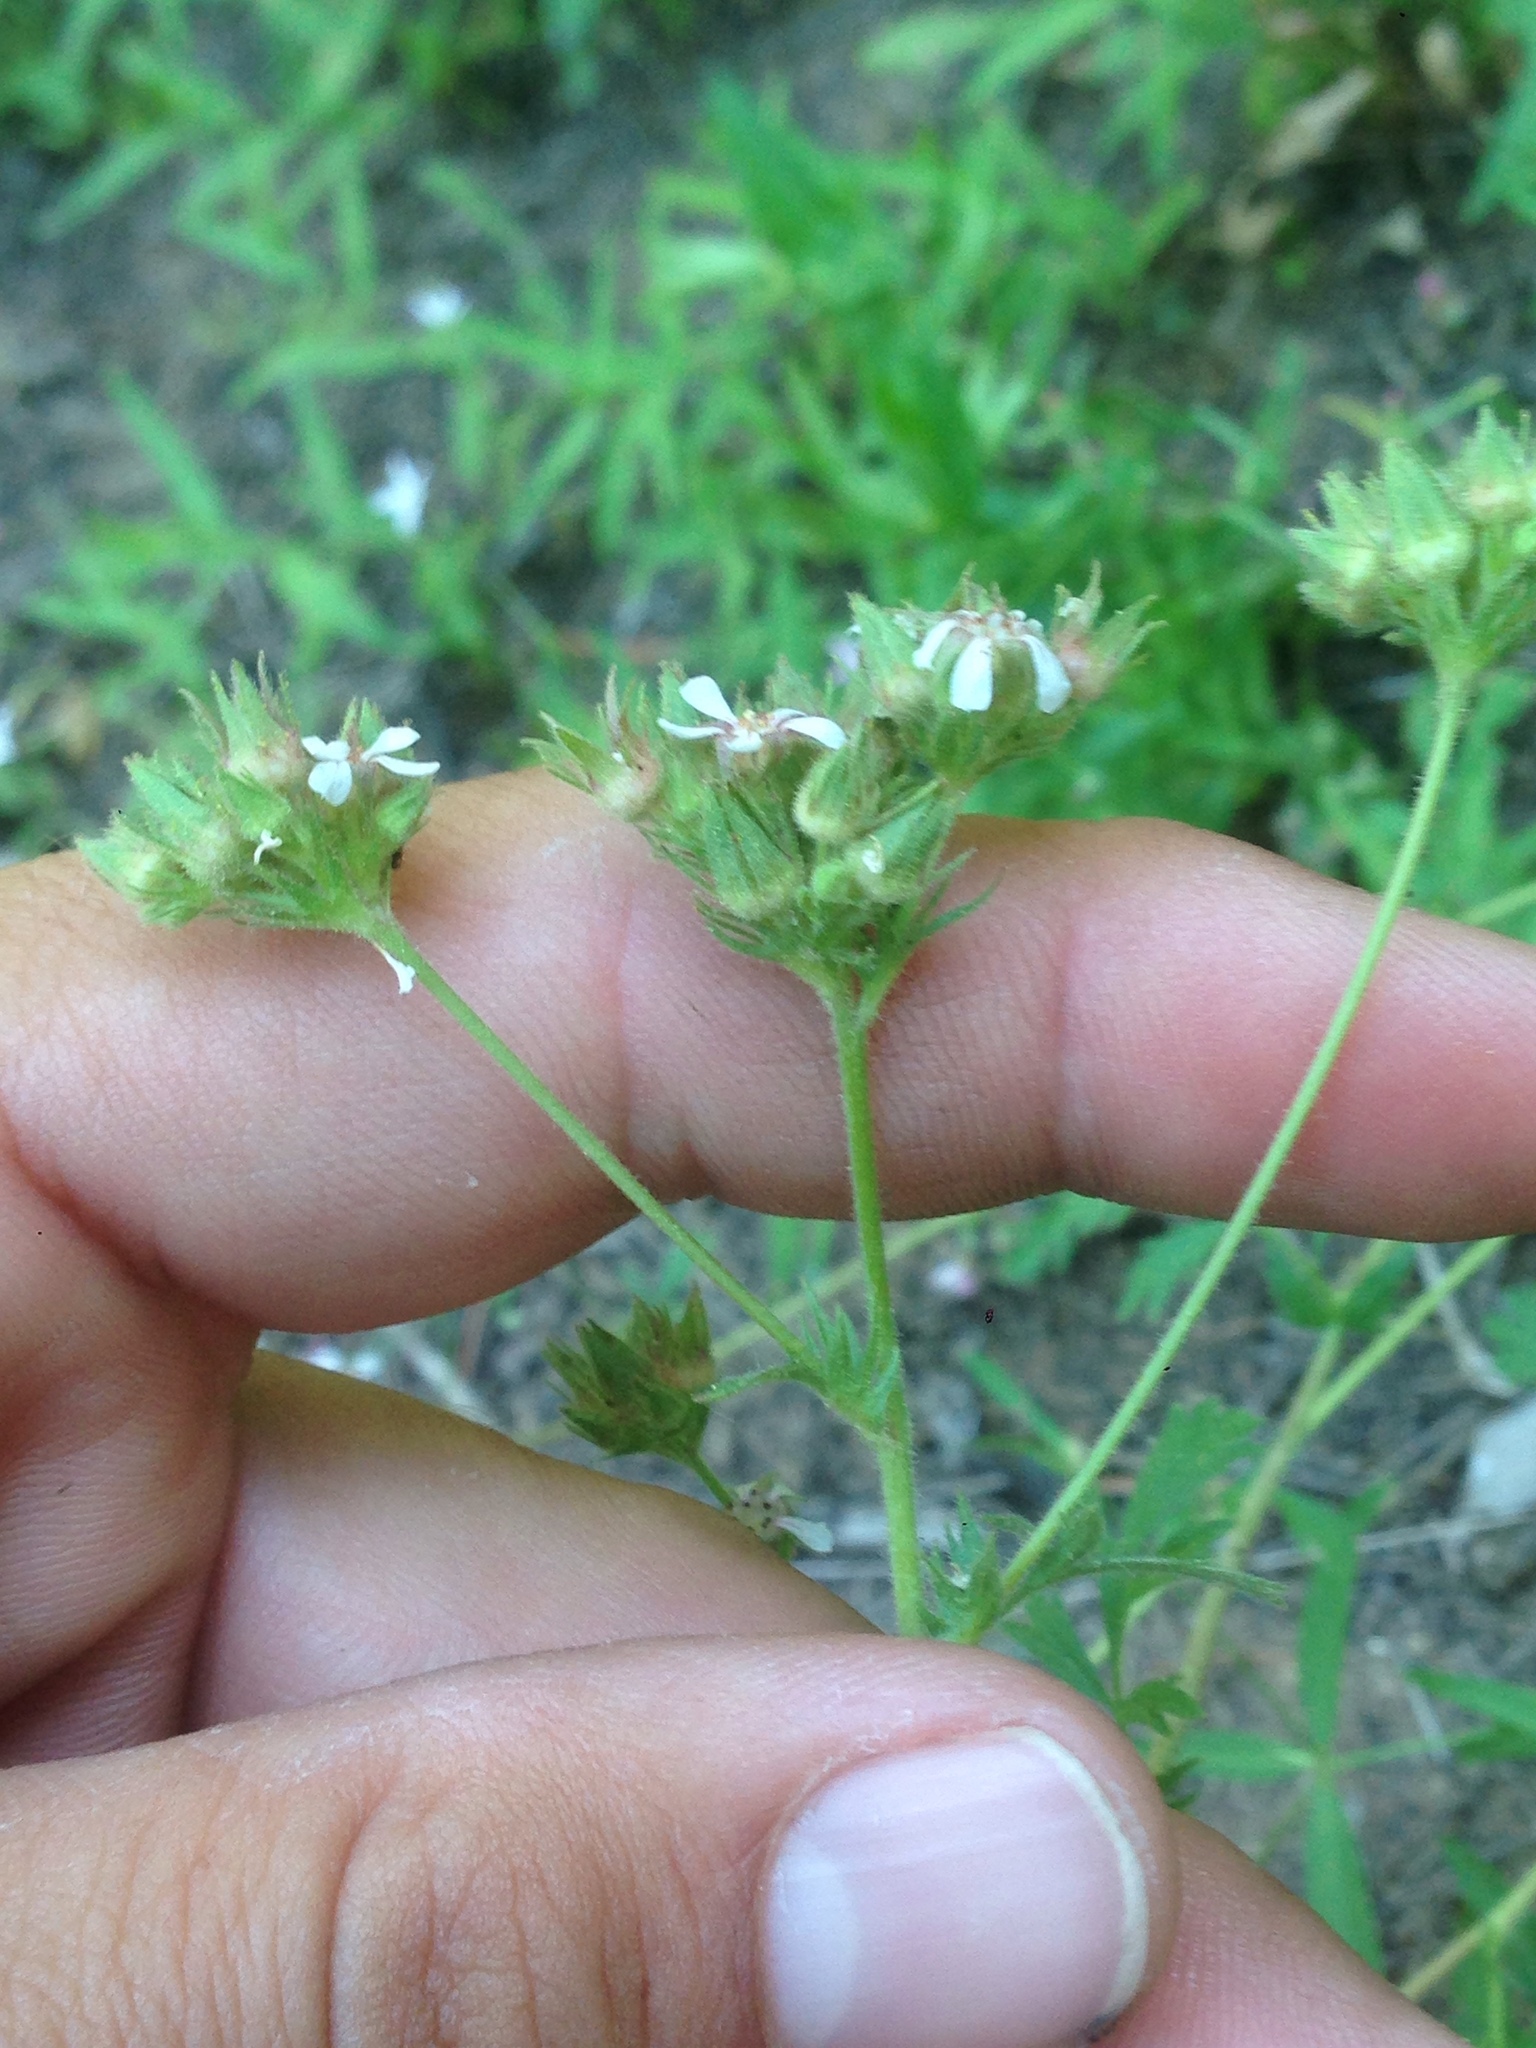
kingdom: Plantae
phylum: Tracheophyta
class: Magnoliopsida
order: Rosales
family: Rosaceae
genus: Potentilla
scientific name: Potentilla douglasii
